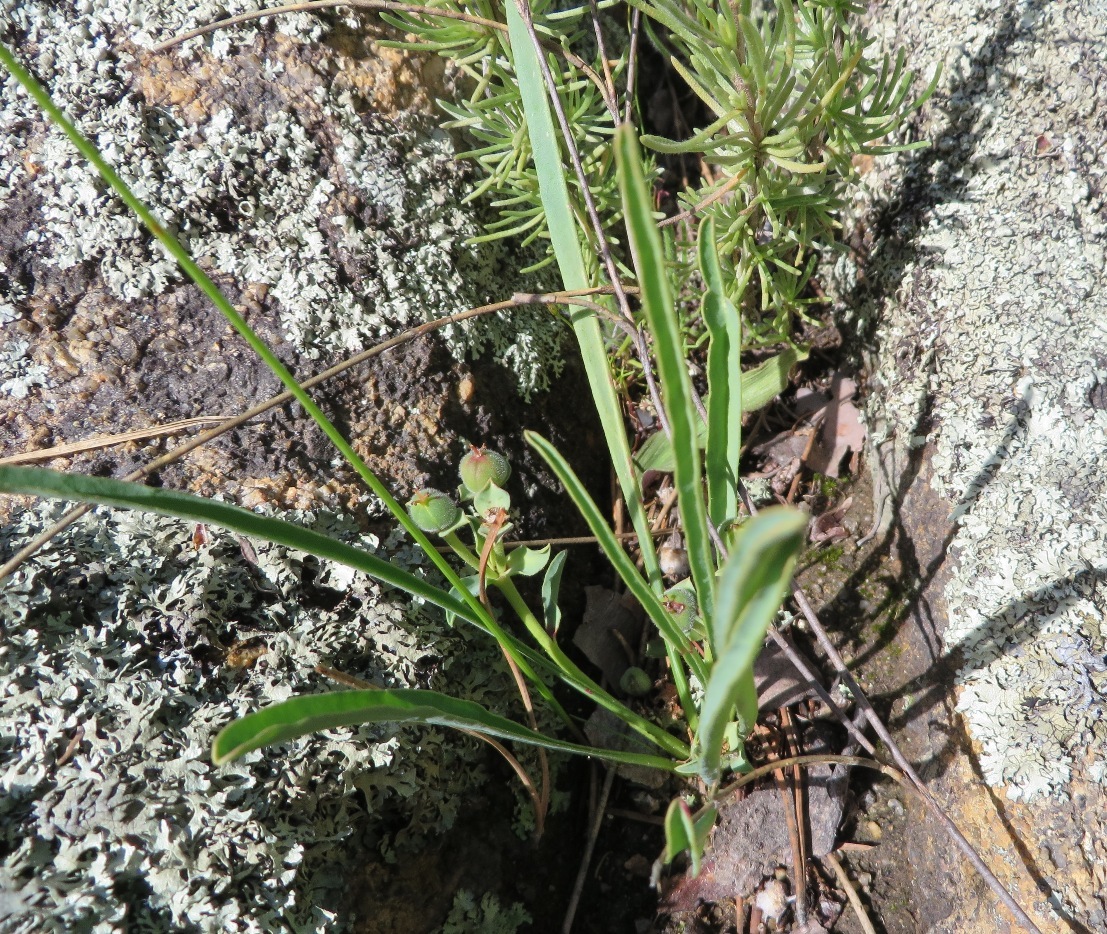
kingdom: Plantae
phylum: Tracheophyta
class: Magnoliopsida
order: Malpighiales
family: Euphorbiaceae
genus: Euphorbia
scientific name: Euphorbia silenifolia
